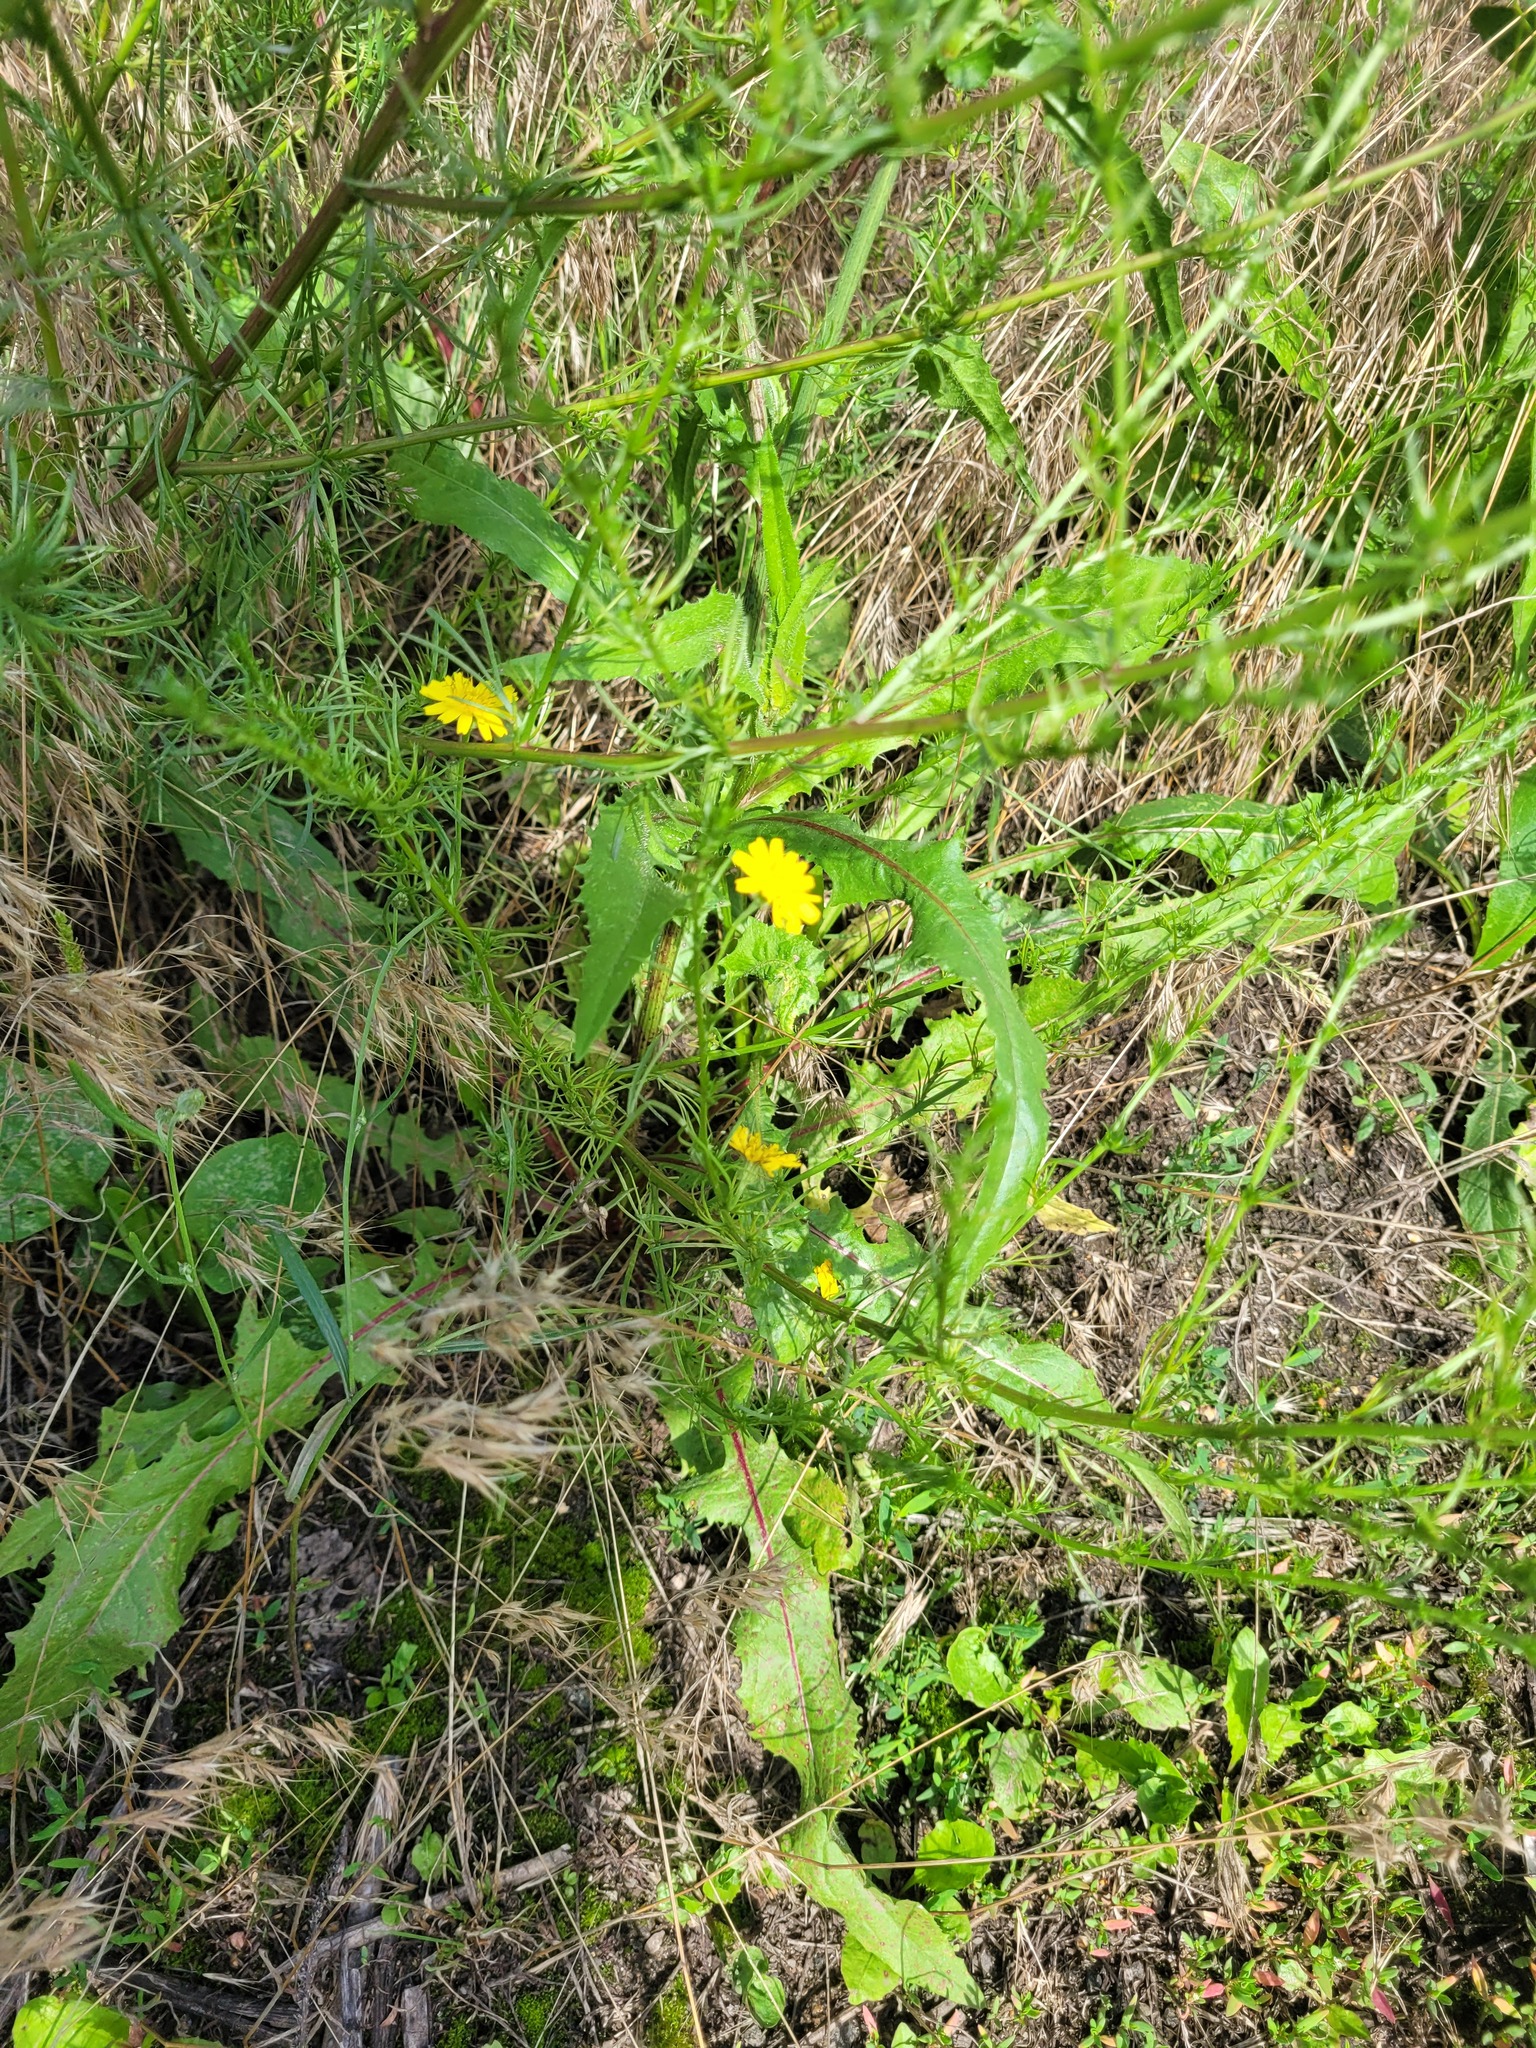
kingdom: Plantae
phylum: Tracheophyta
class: Magnoliopsida
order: Asterales
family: Asteraceae
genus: Crepis
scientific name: Crepis tectorum
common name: Narrow-leaved hawk's-beard
